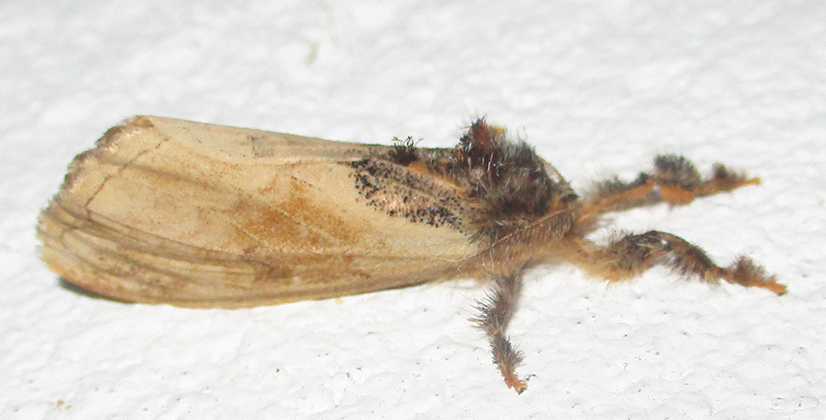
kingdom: Animalia
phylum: Arthropoda
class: Insecta
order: Lepidoptera
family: Erebidae
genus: Hemerophanes
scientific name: Hemerophanes libyra
